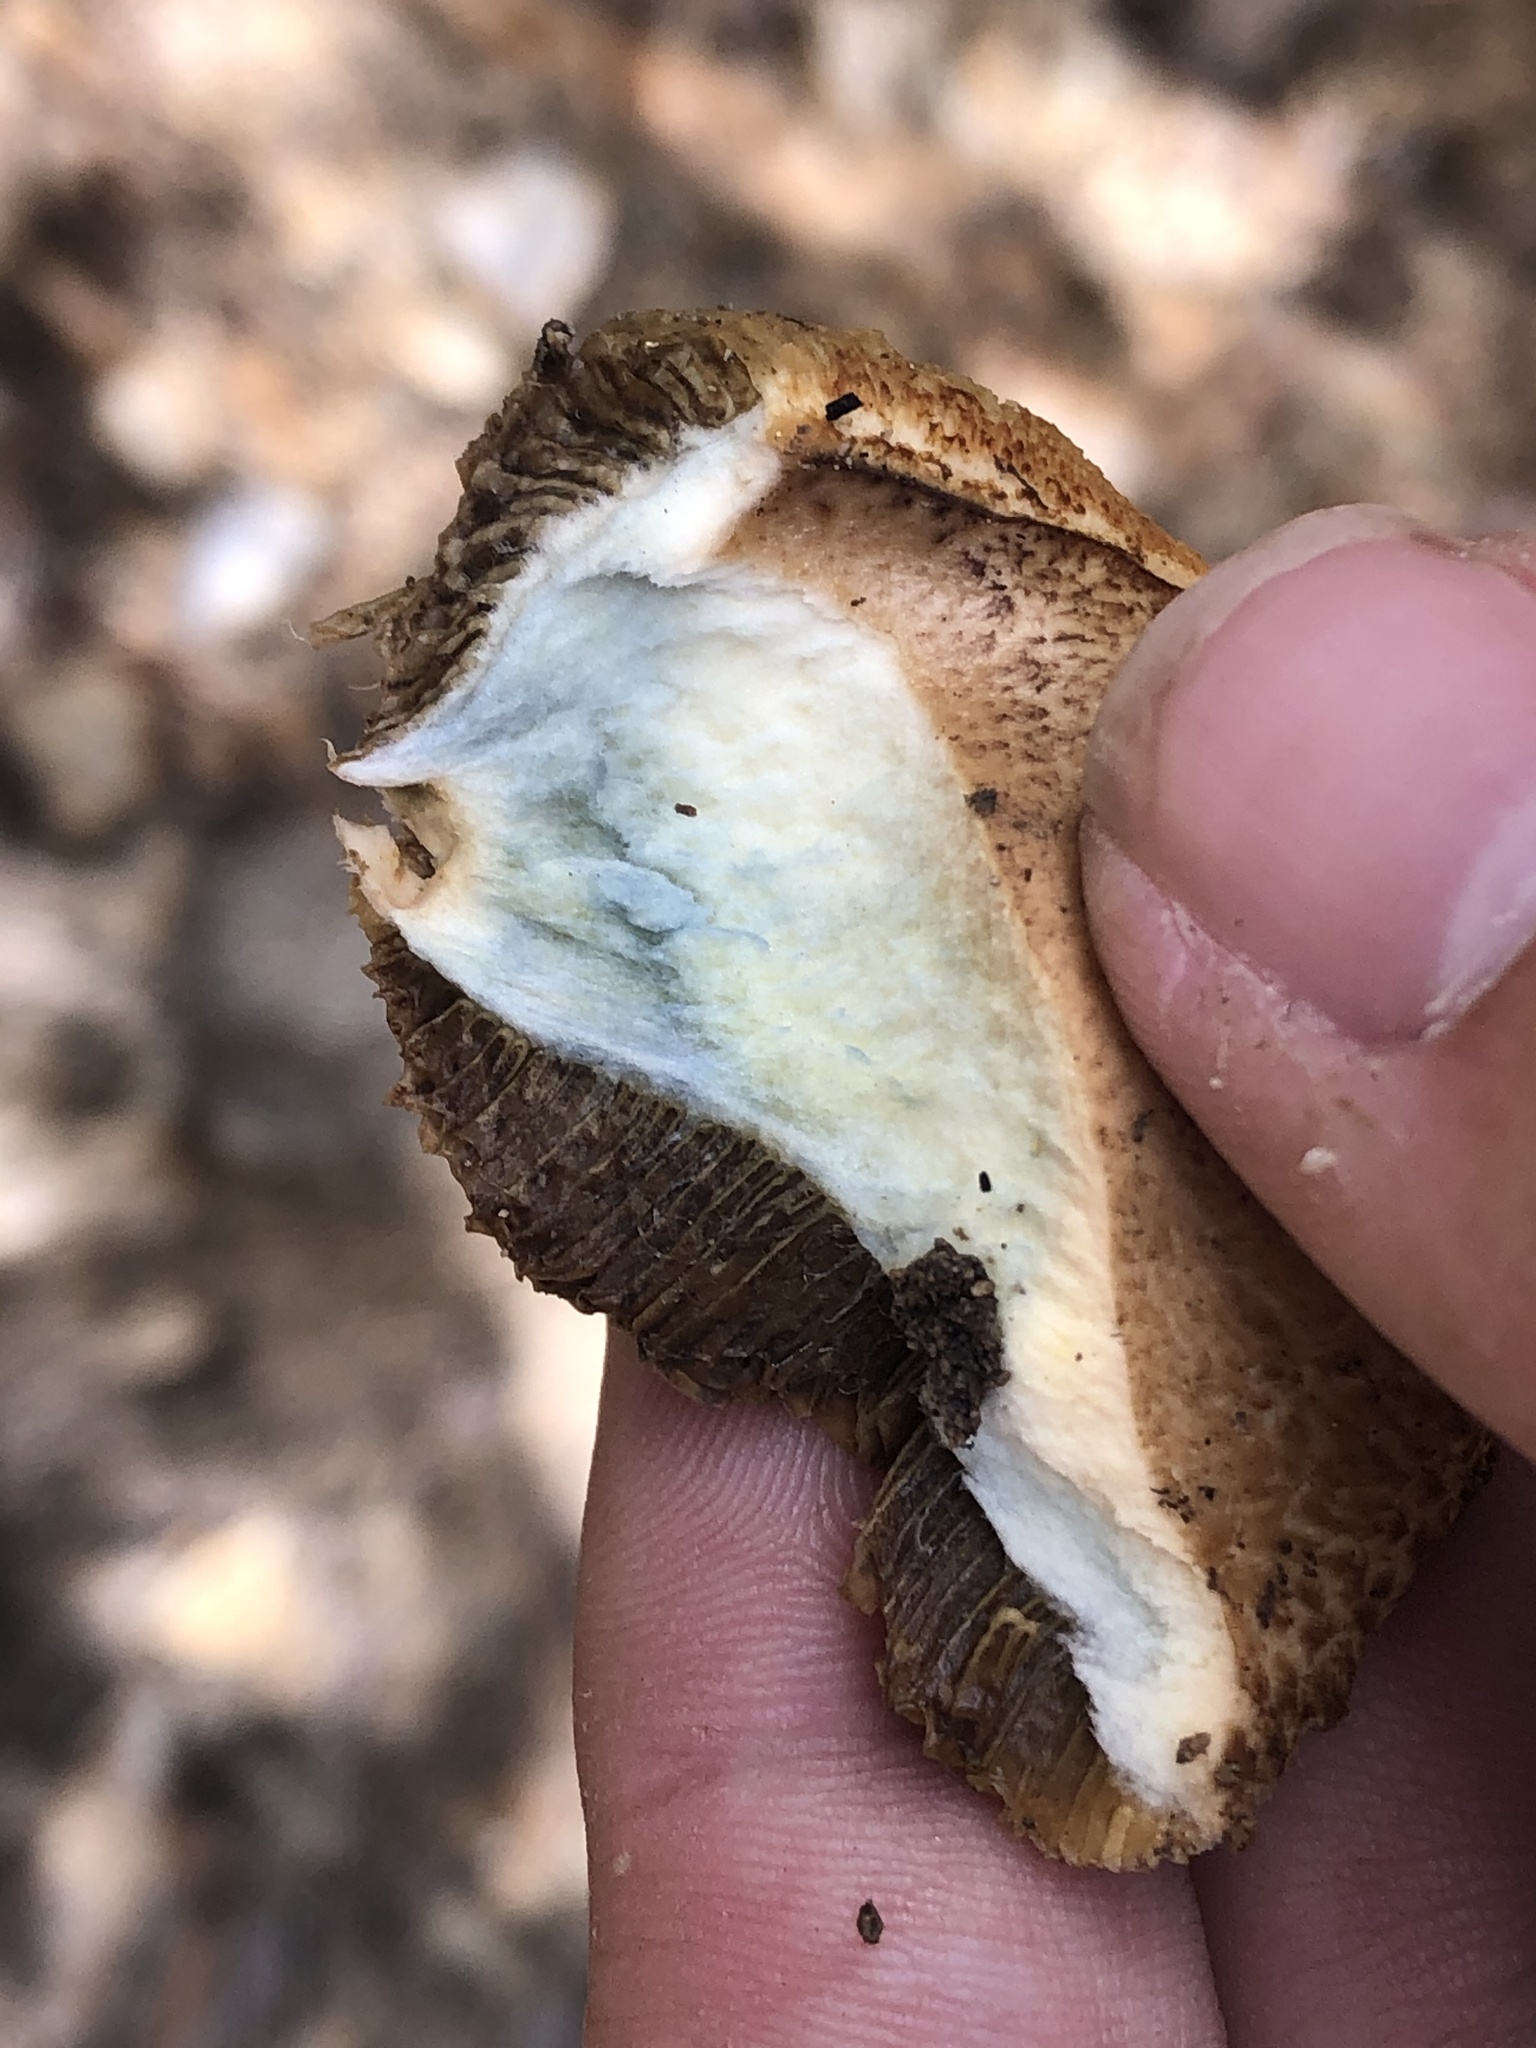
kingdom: Fungi
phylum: Basidiomycota
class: Agaricomycetes
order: Boletales
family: Suillaceae
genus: Suillus
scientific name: Suillus tomentosus
